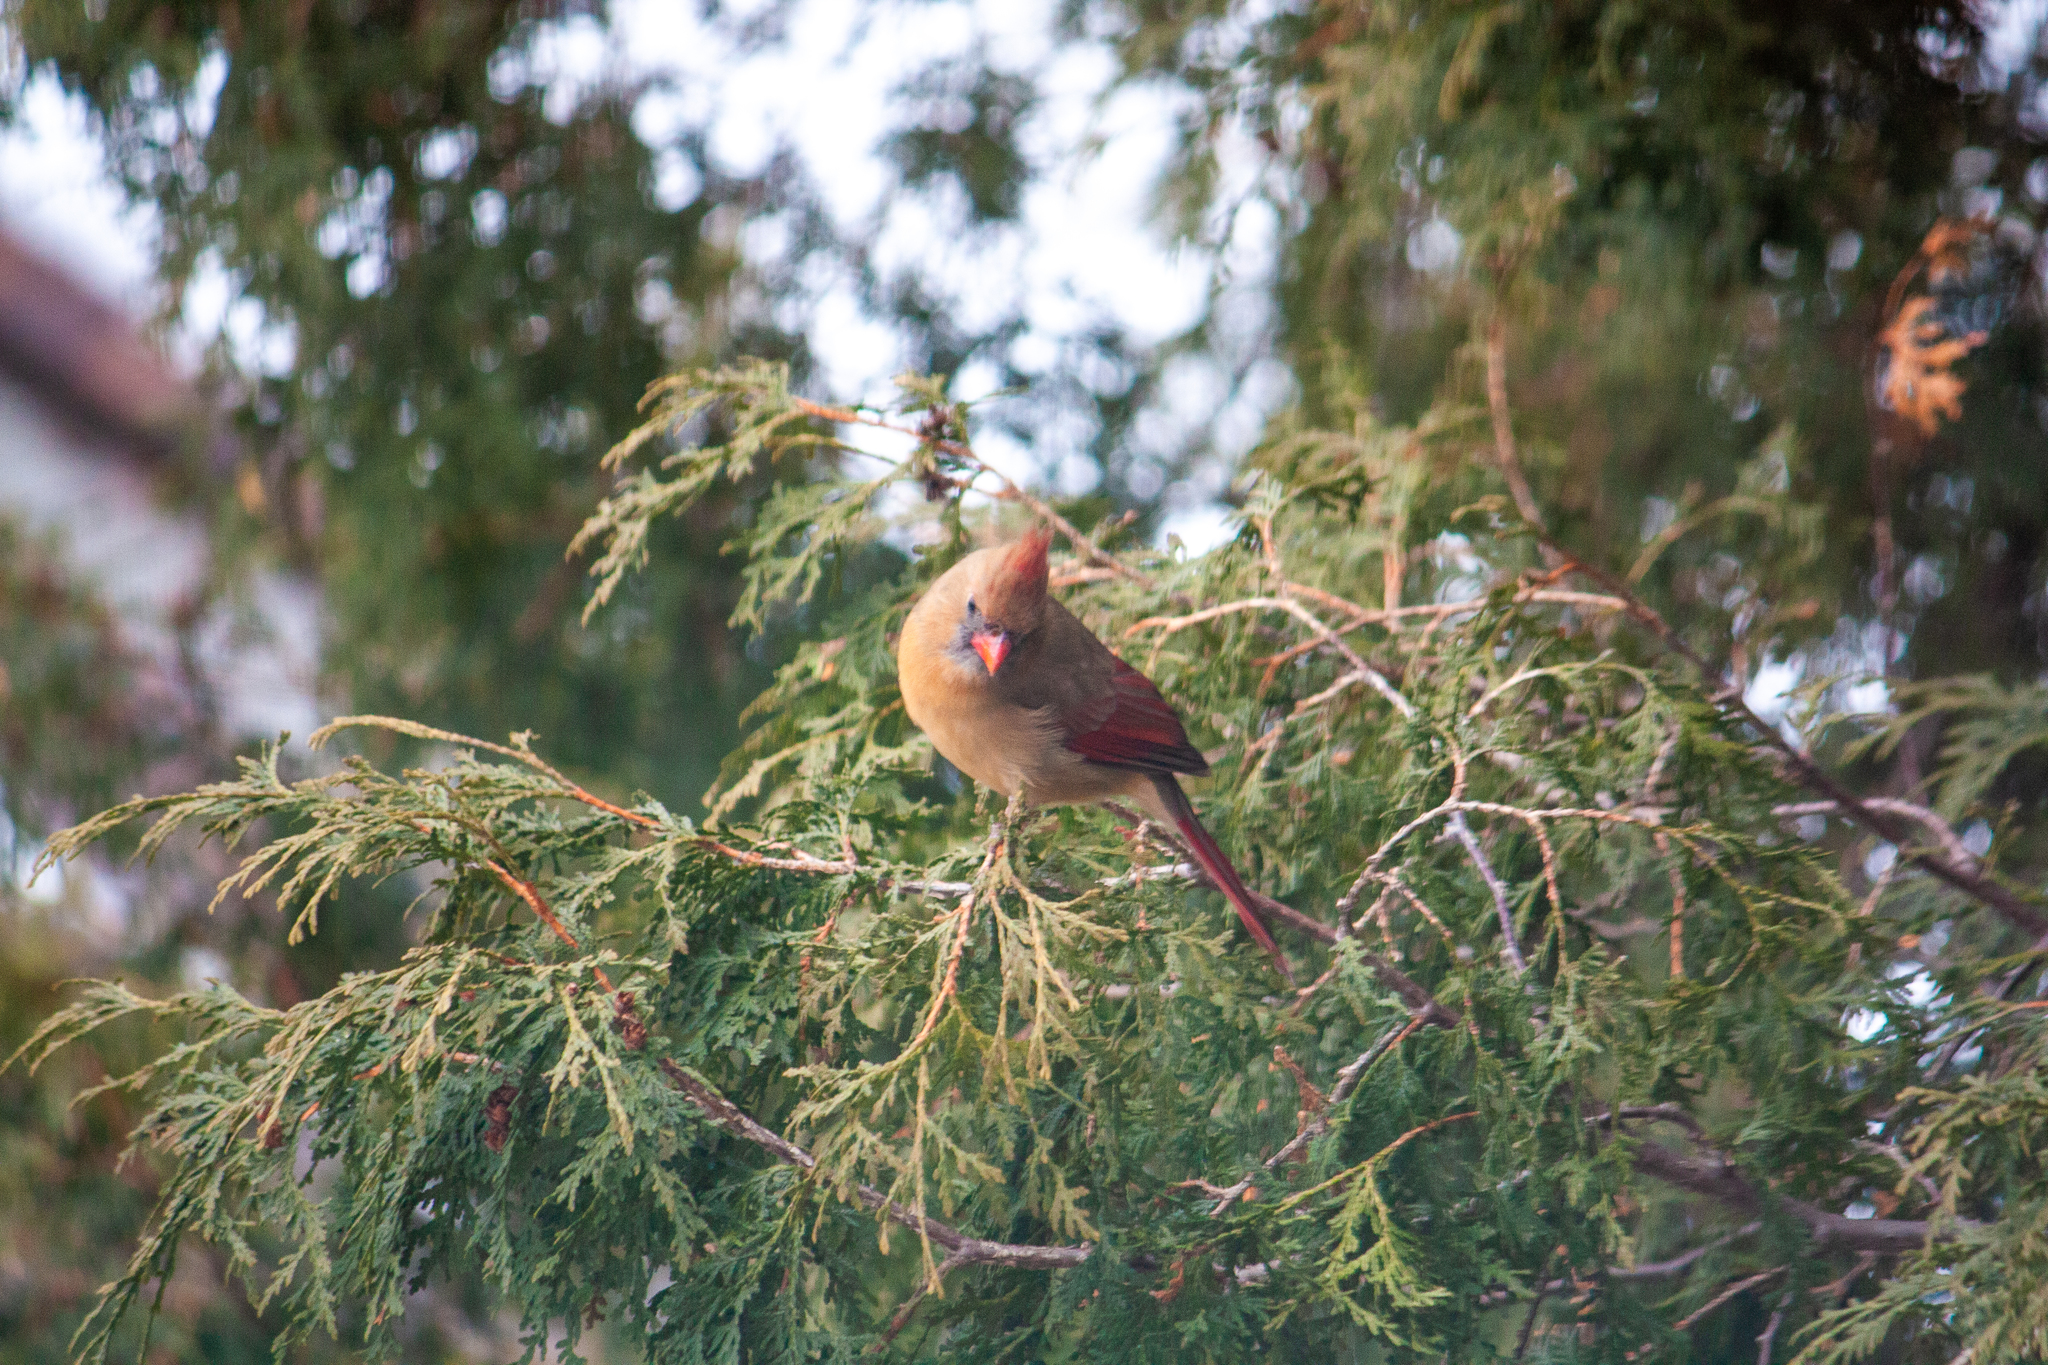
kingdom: Animalia
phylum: Chordata
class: Aves
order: Passeriformes
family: Cardinalidae
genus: Cardinalis
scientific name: Cardinalis cardinalis
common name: Northern cardinal
